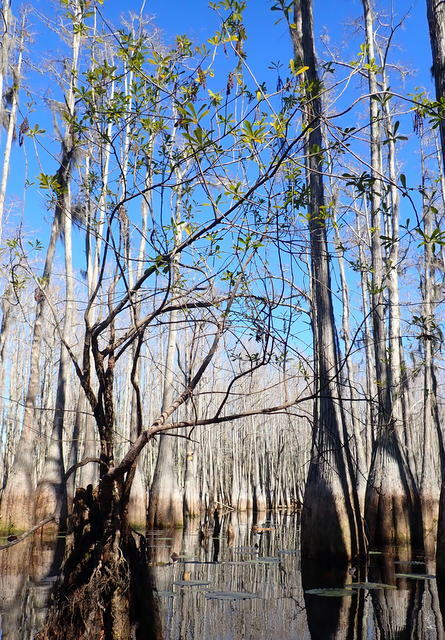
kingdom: Plantae
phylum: Tracheophyta
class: Magnoliopsida
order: Ericales
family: Cyrillaceae
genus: Cyrilla
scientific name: Cyrilla racemiflora
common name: Black titi
